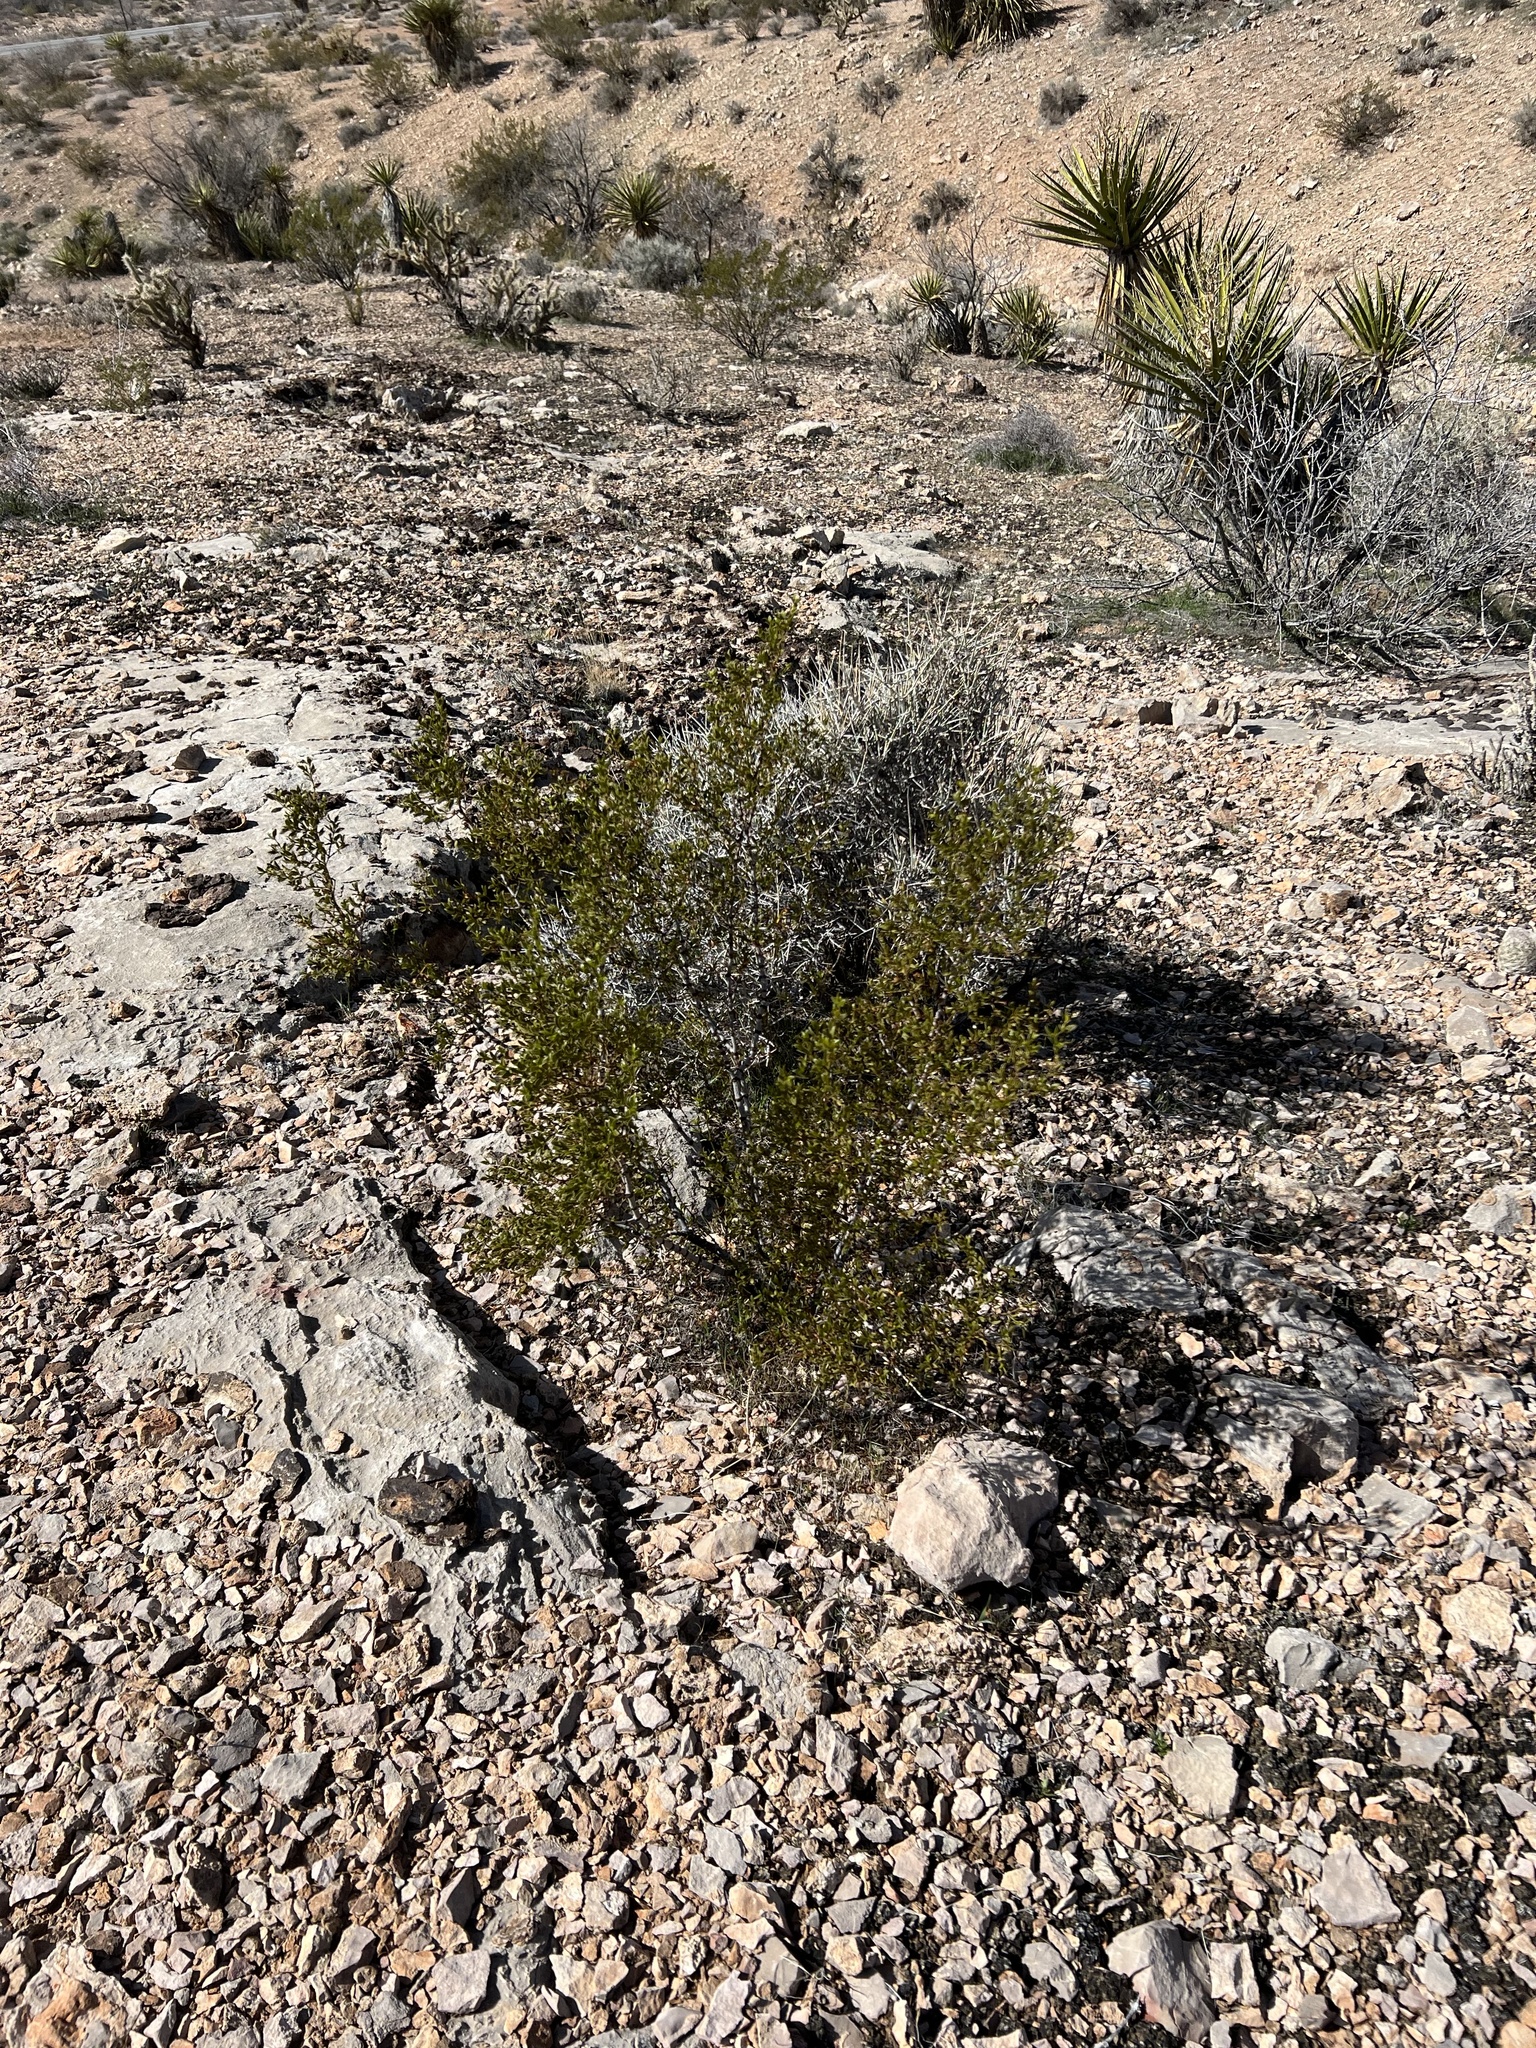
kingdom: Plantae
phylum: Tracheophyta
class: Magnoliopsida
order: Zygophyllales
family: Zygophyllaceae
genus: Larrea
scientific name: Larrea tridentata
